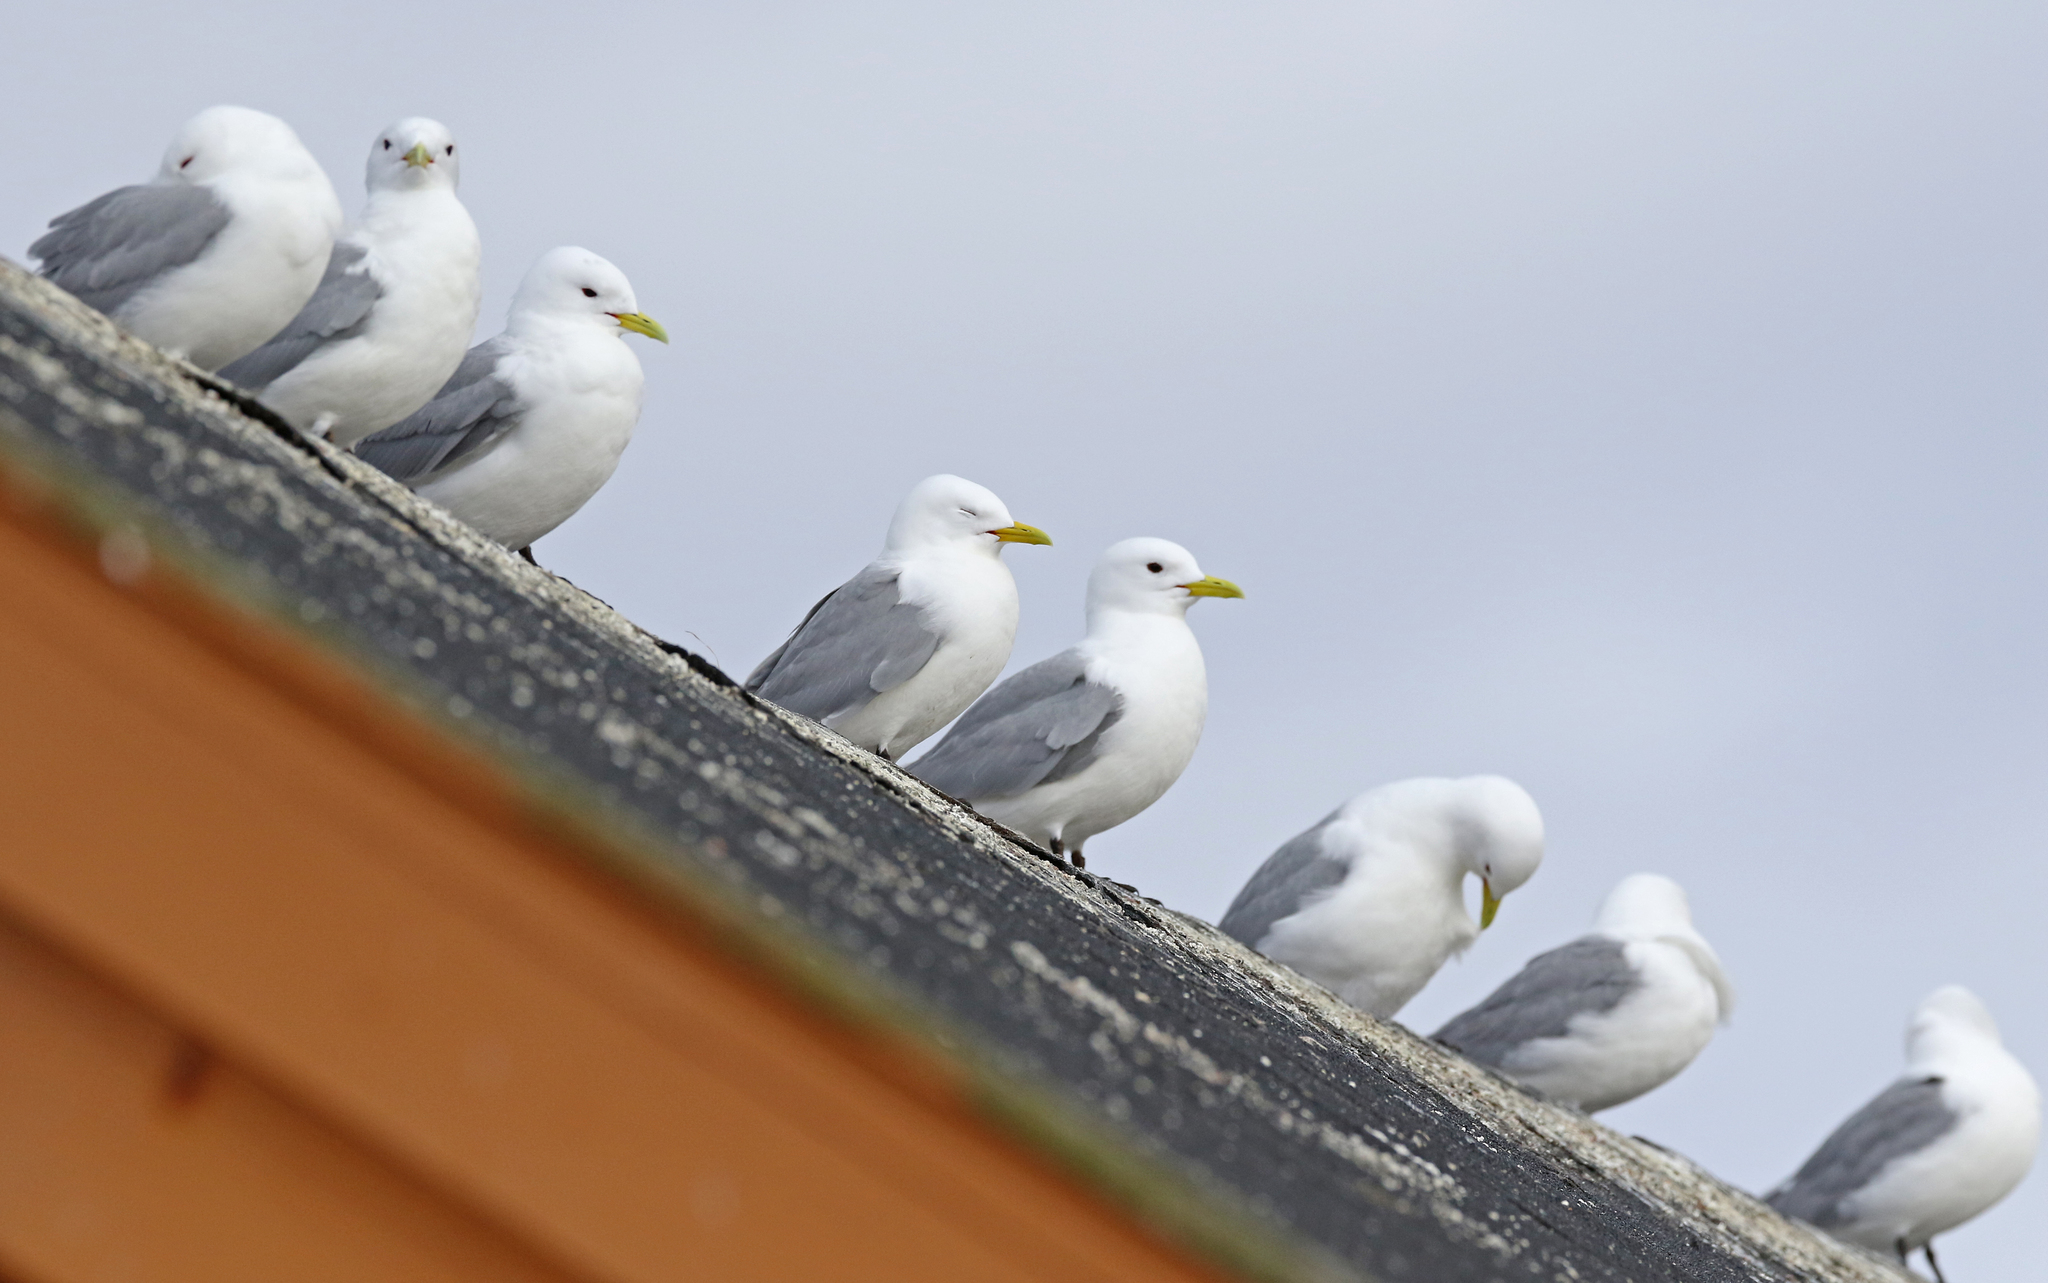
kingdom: Animalia
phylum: Chordata
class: Aves
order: Charadriiformes
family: Laridae
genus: Rissa
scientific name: Rissa tridactyla
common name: Black-legged kittiwake
